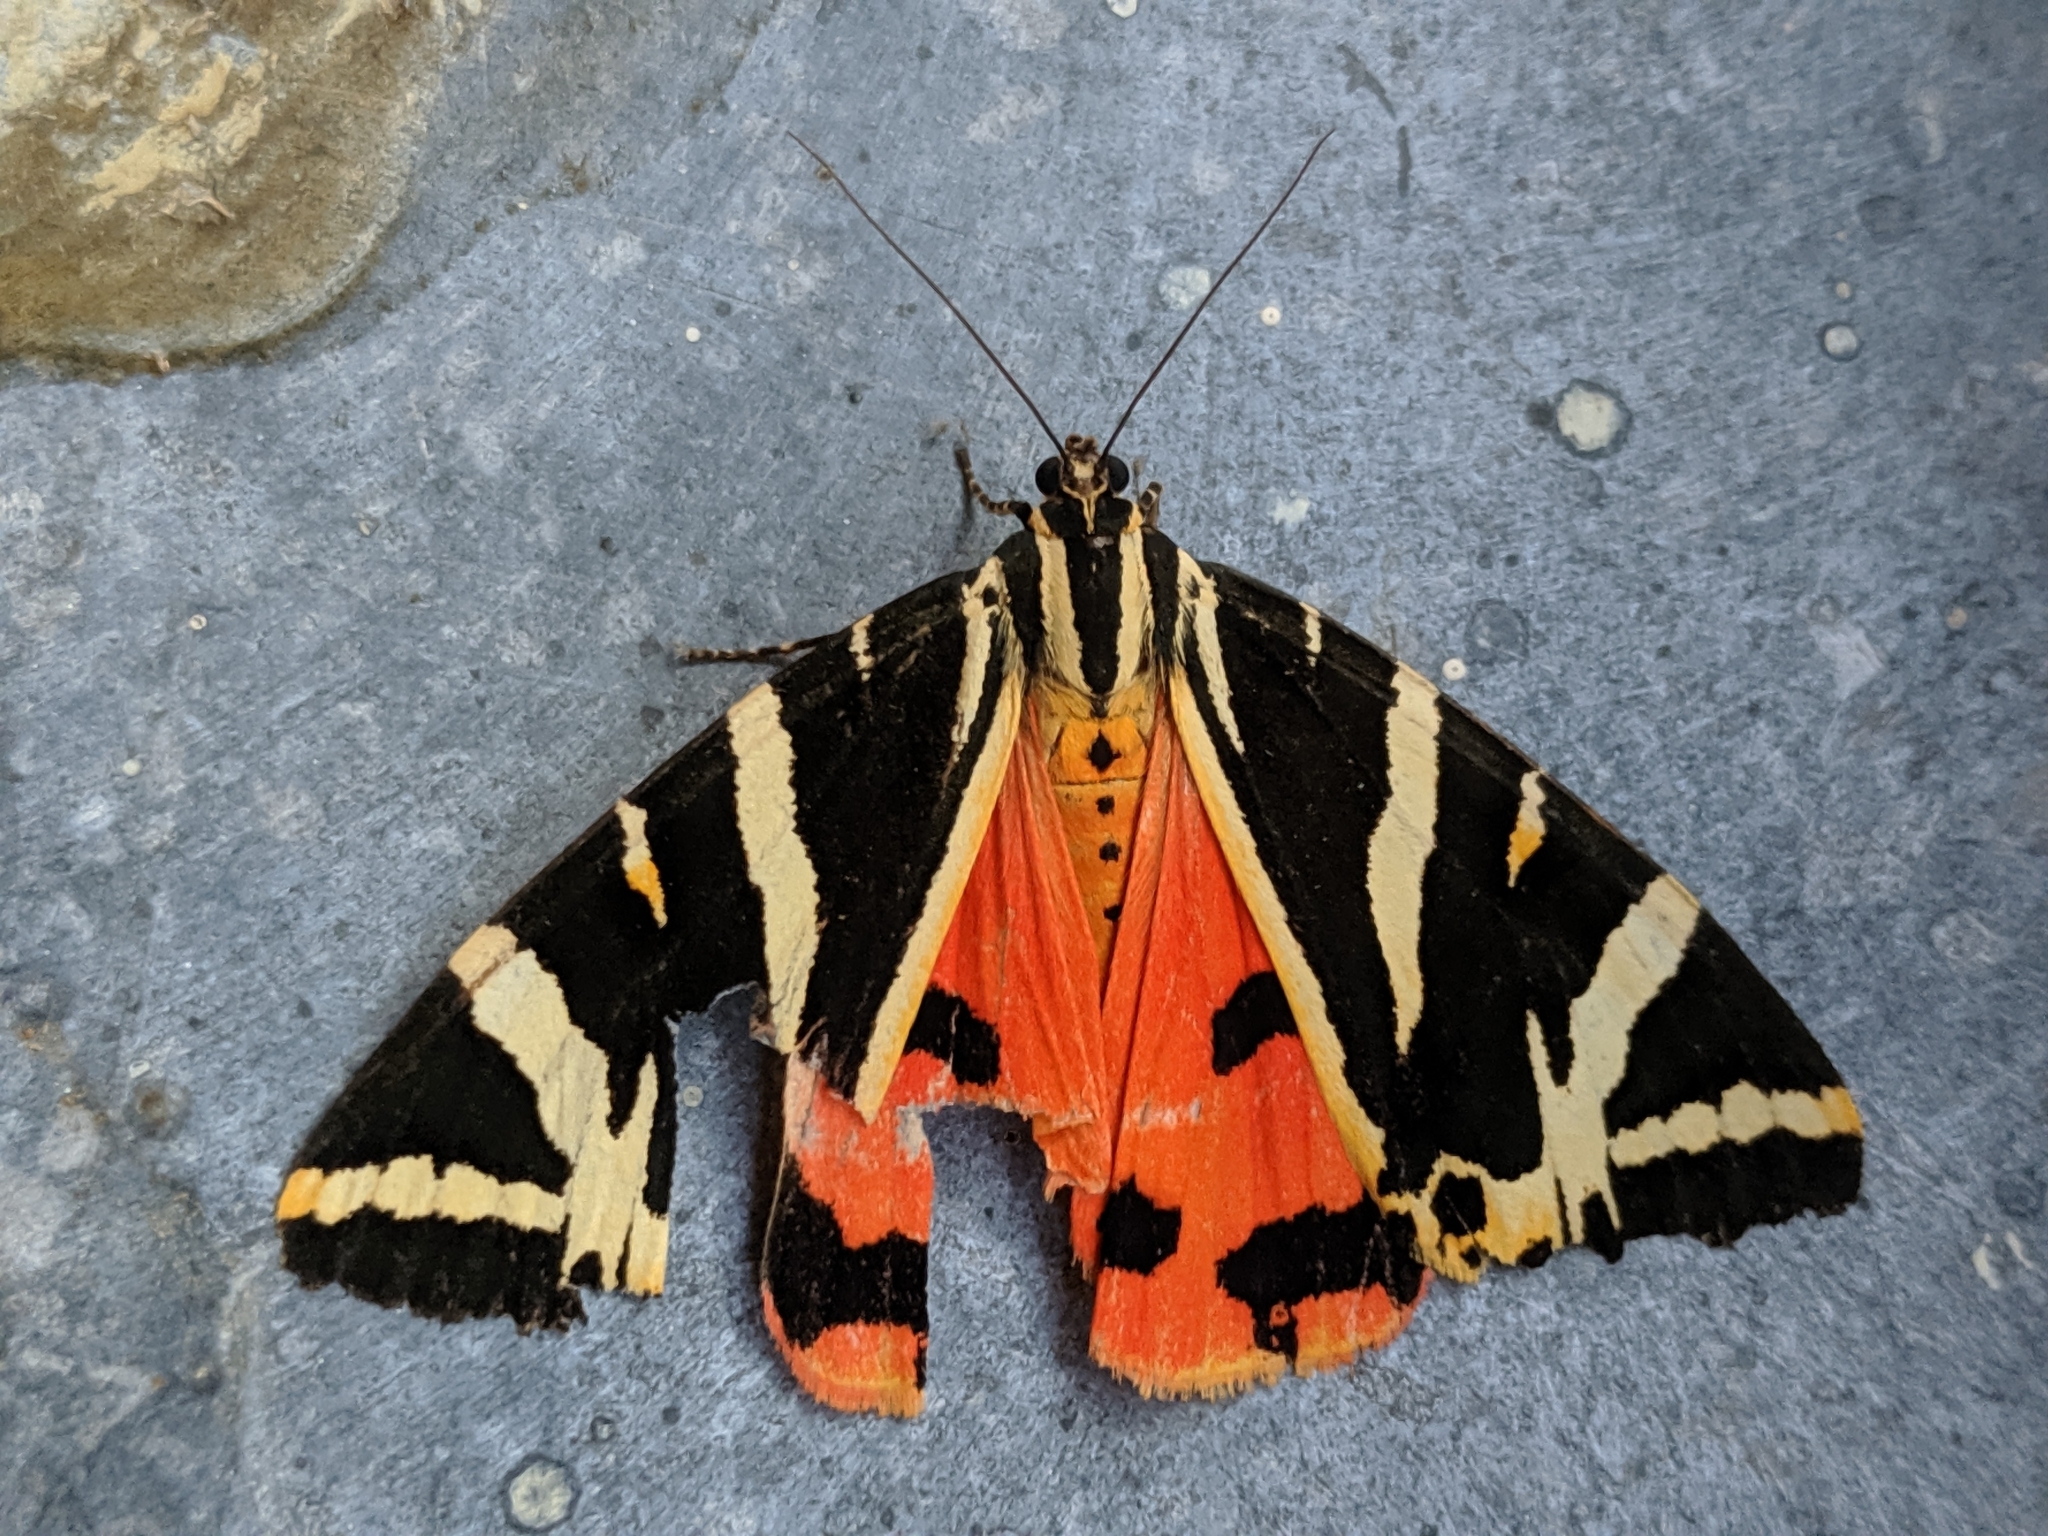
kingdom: Animalia
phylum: Arthropoda
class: Insecta
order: Lepidoptera
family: Erebidae
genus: Euplagia
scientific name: Euplagia quadripunctaria
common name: Jersey tiger
